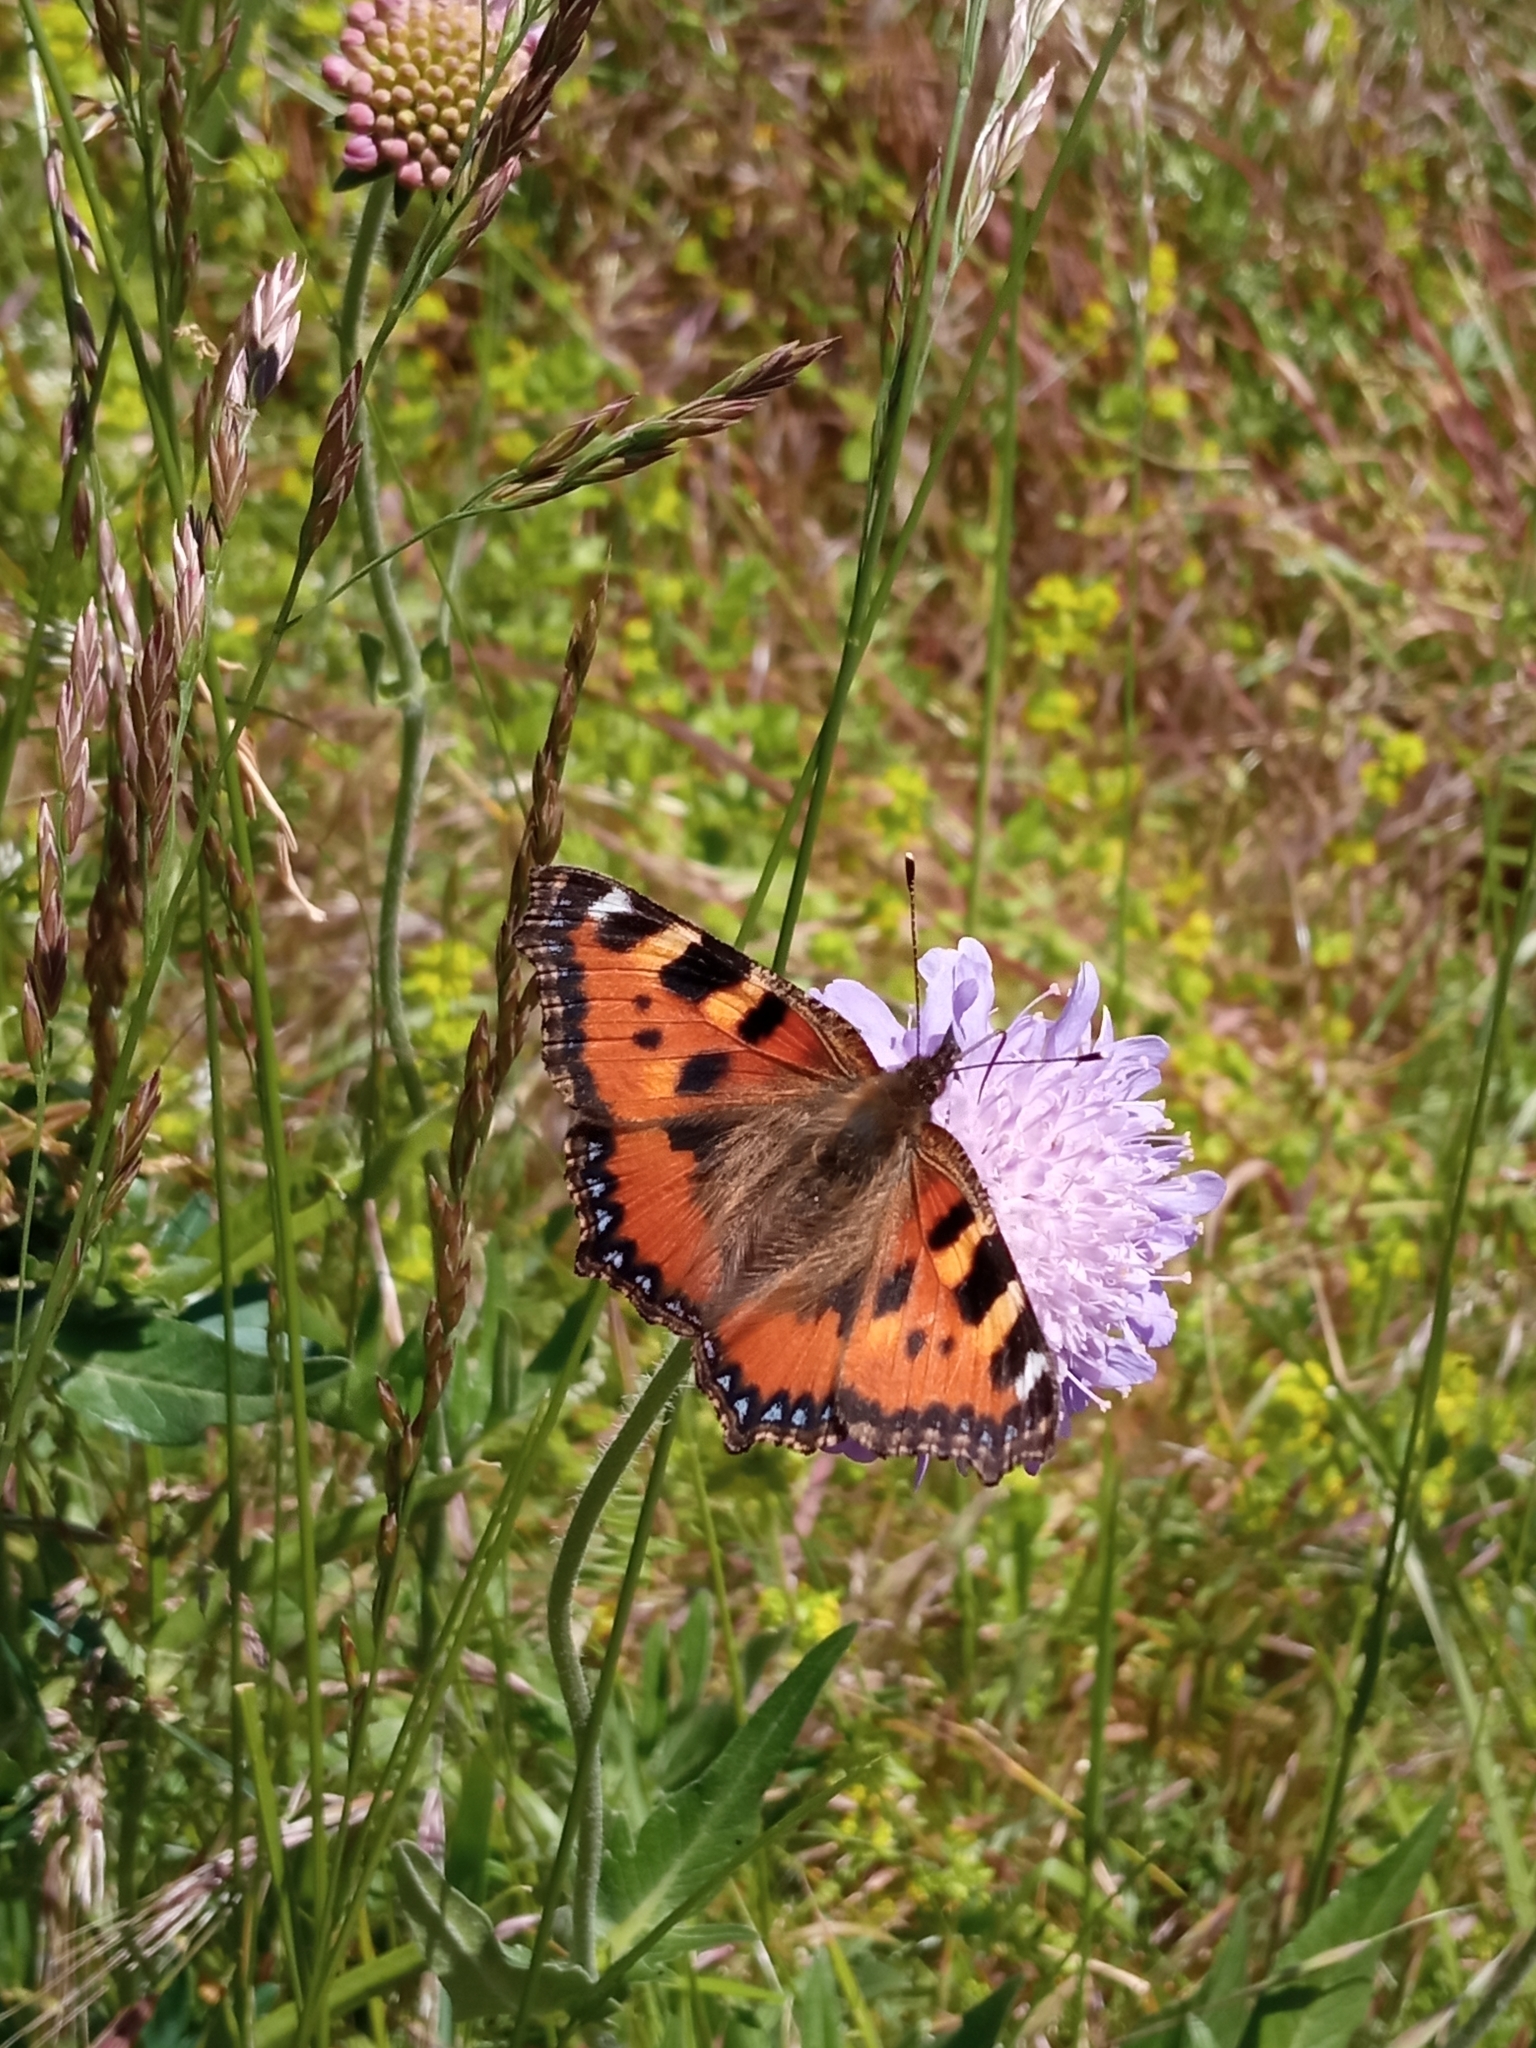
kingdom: Animalia
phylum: Arthropoda
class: Insecta
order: Lepidoptera
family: Nymphalidae
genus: Aglais
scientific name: Aglais urticae
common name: Small tortoiseshell
